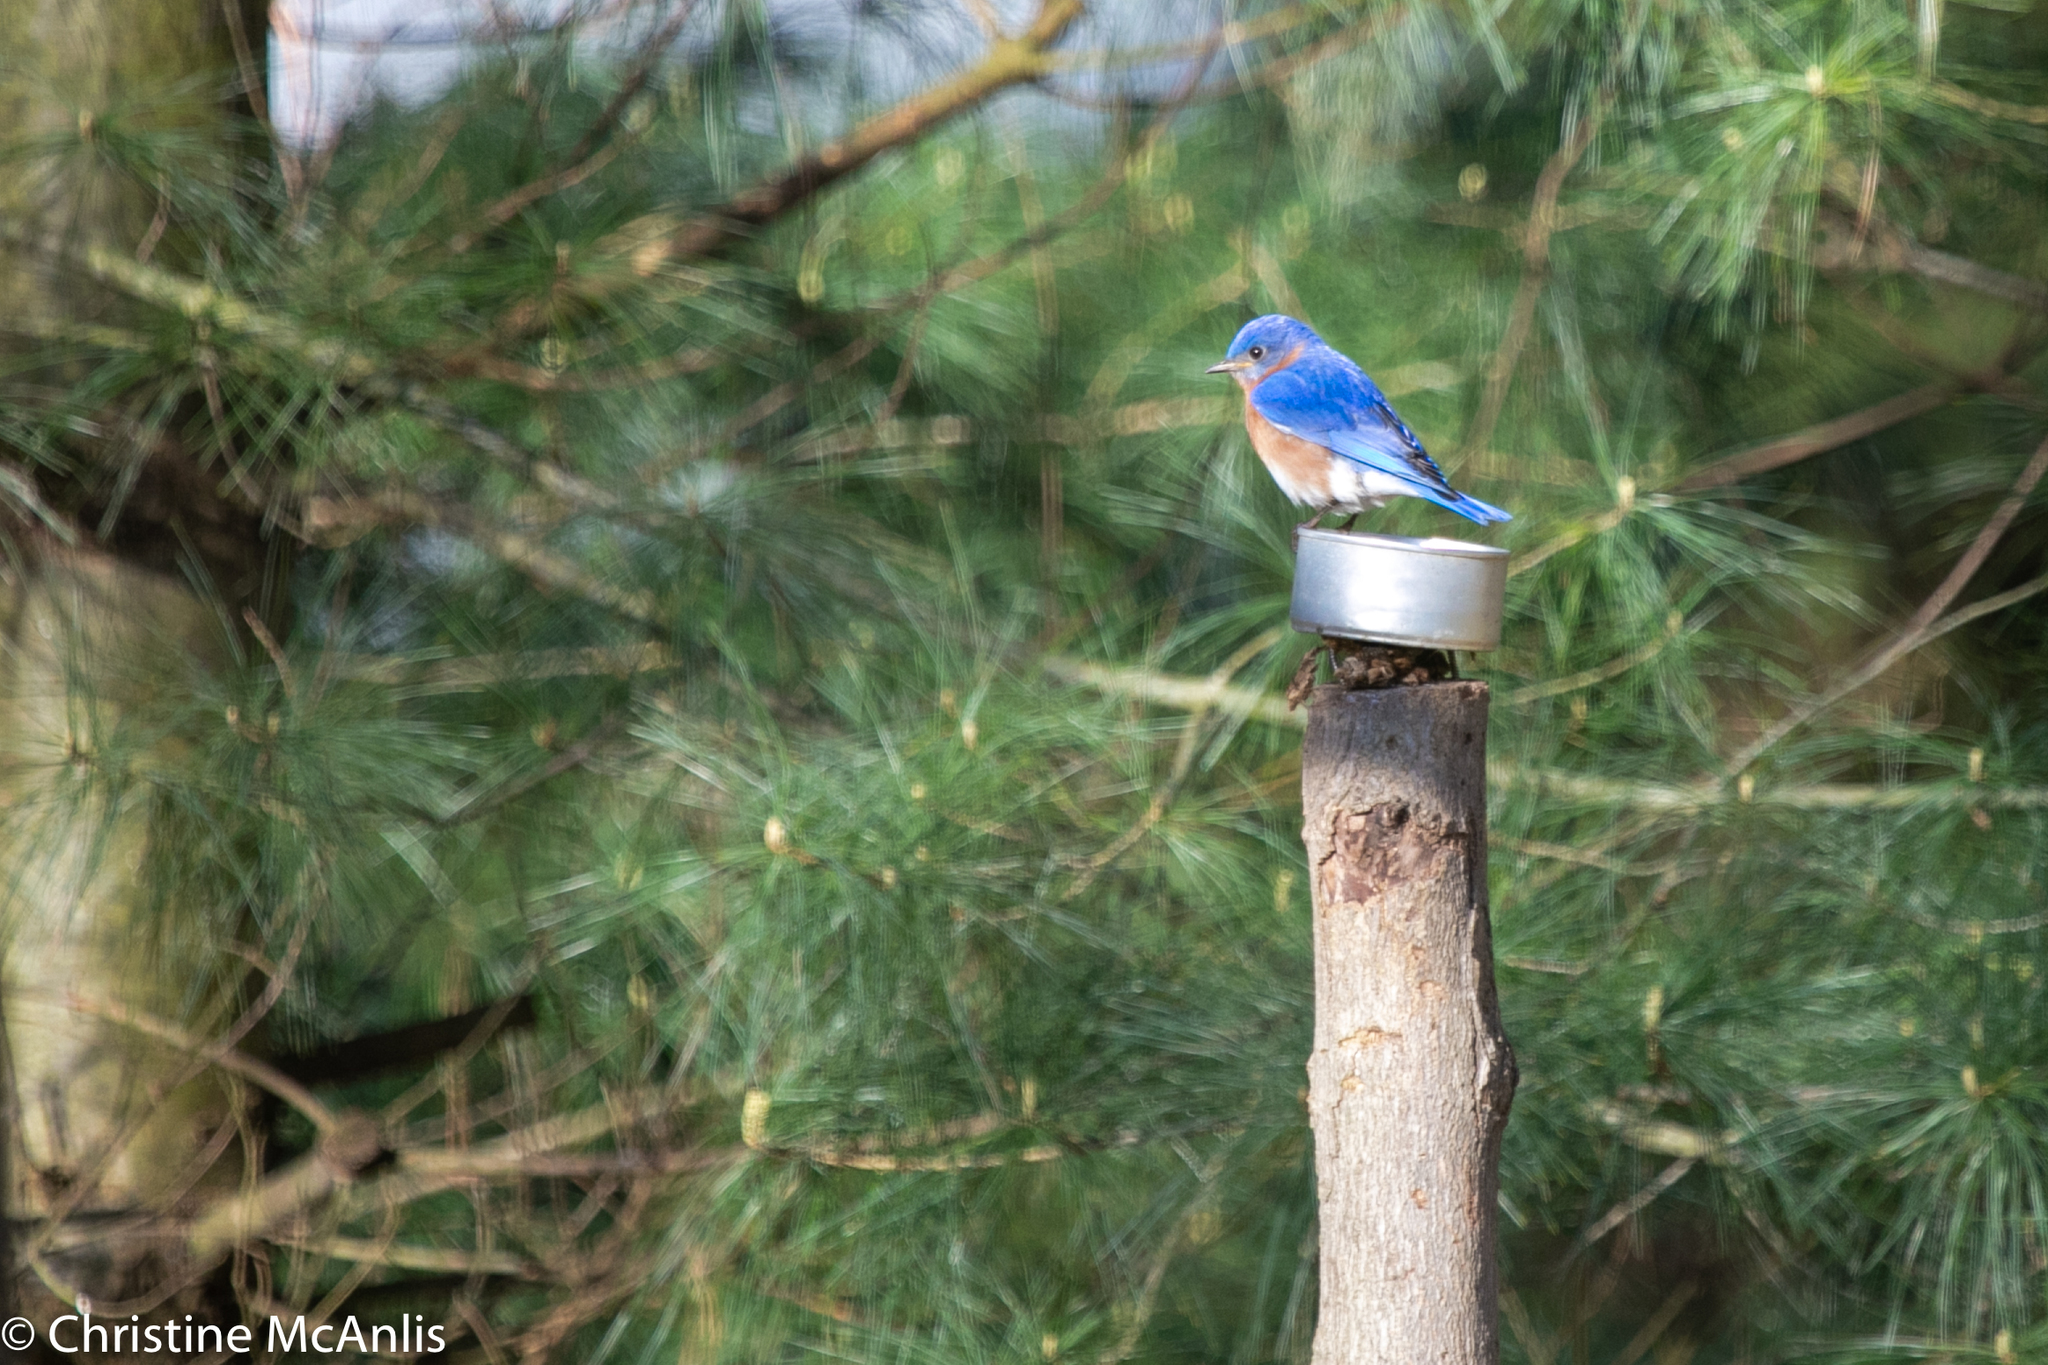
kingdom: Animalia
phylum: Chordata
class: Aves
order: Passeriformes
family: Turdidae
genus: Sialia
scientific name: Sialia sialis
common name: Eastern bluebird
